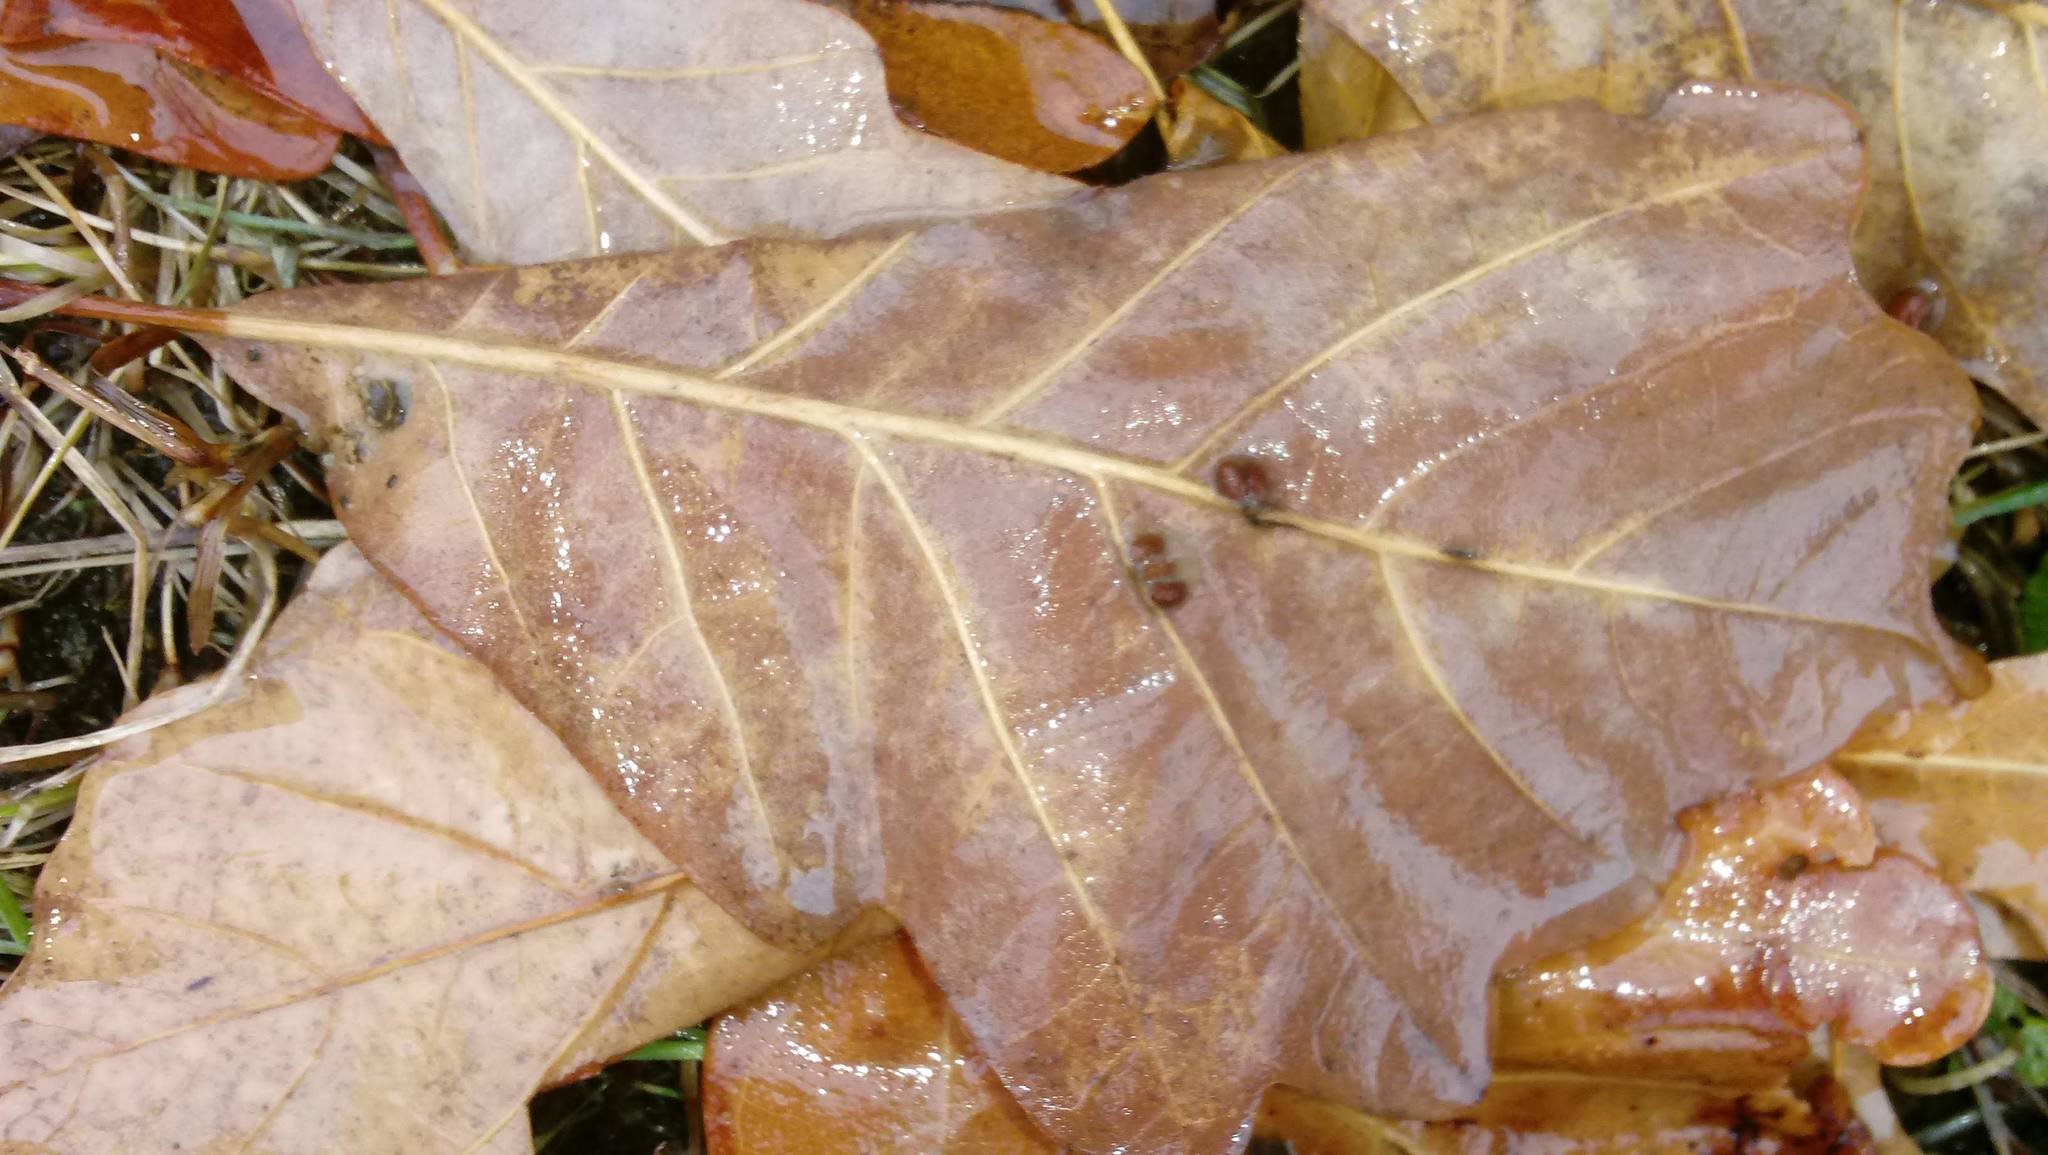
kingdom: Animalia
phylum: Arthropoda
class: Insecta
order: Hymenoptera
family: Cynipidae
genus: Andricus
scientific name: Andricus Druon ignotum
